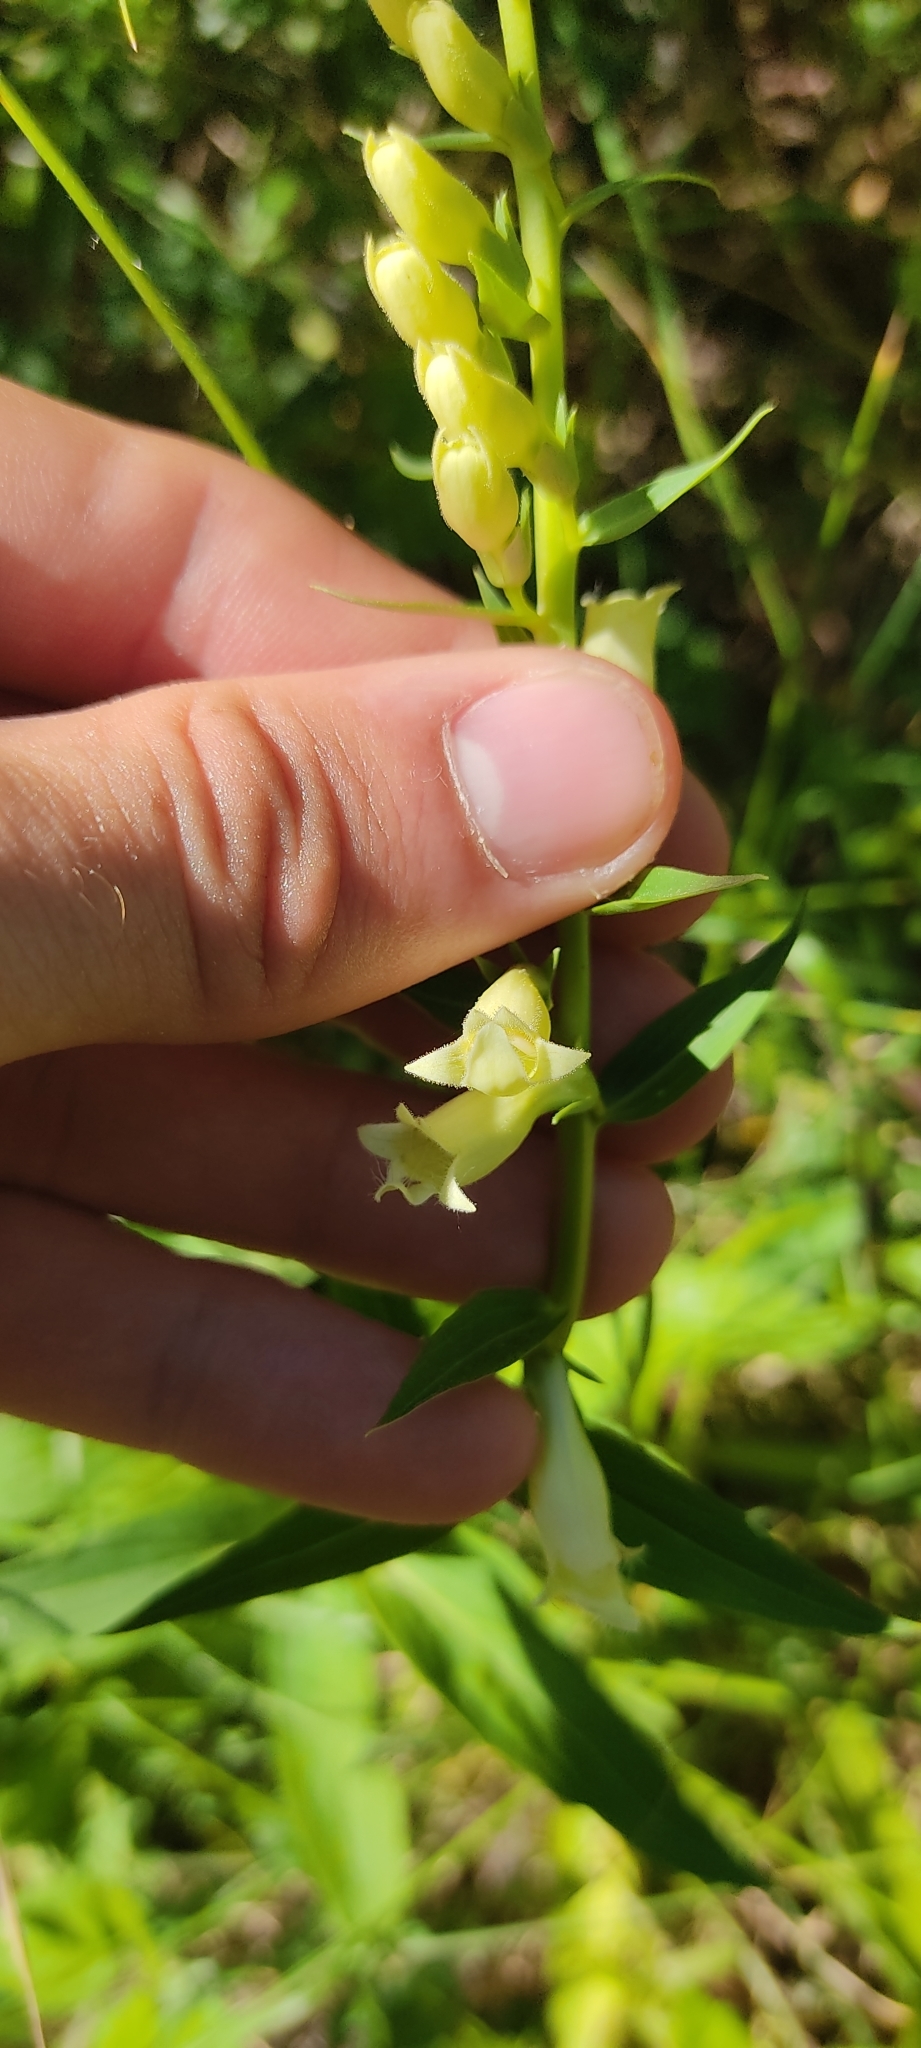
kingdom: Plantae
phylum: Tracheophyta
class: Magnoliopsida
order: Lamiales
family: Plantaginaceae
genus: Digitalis
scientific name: Digitalis lutea
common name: Straw foxglove
